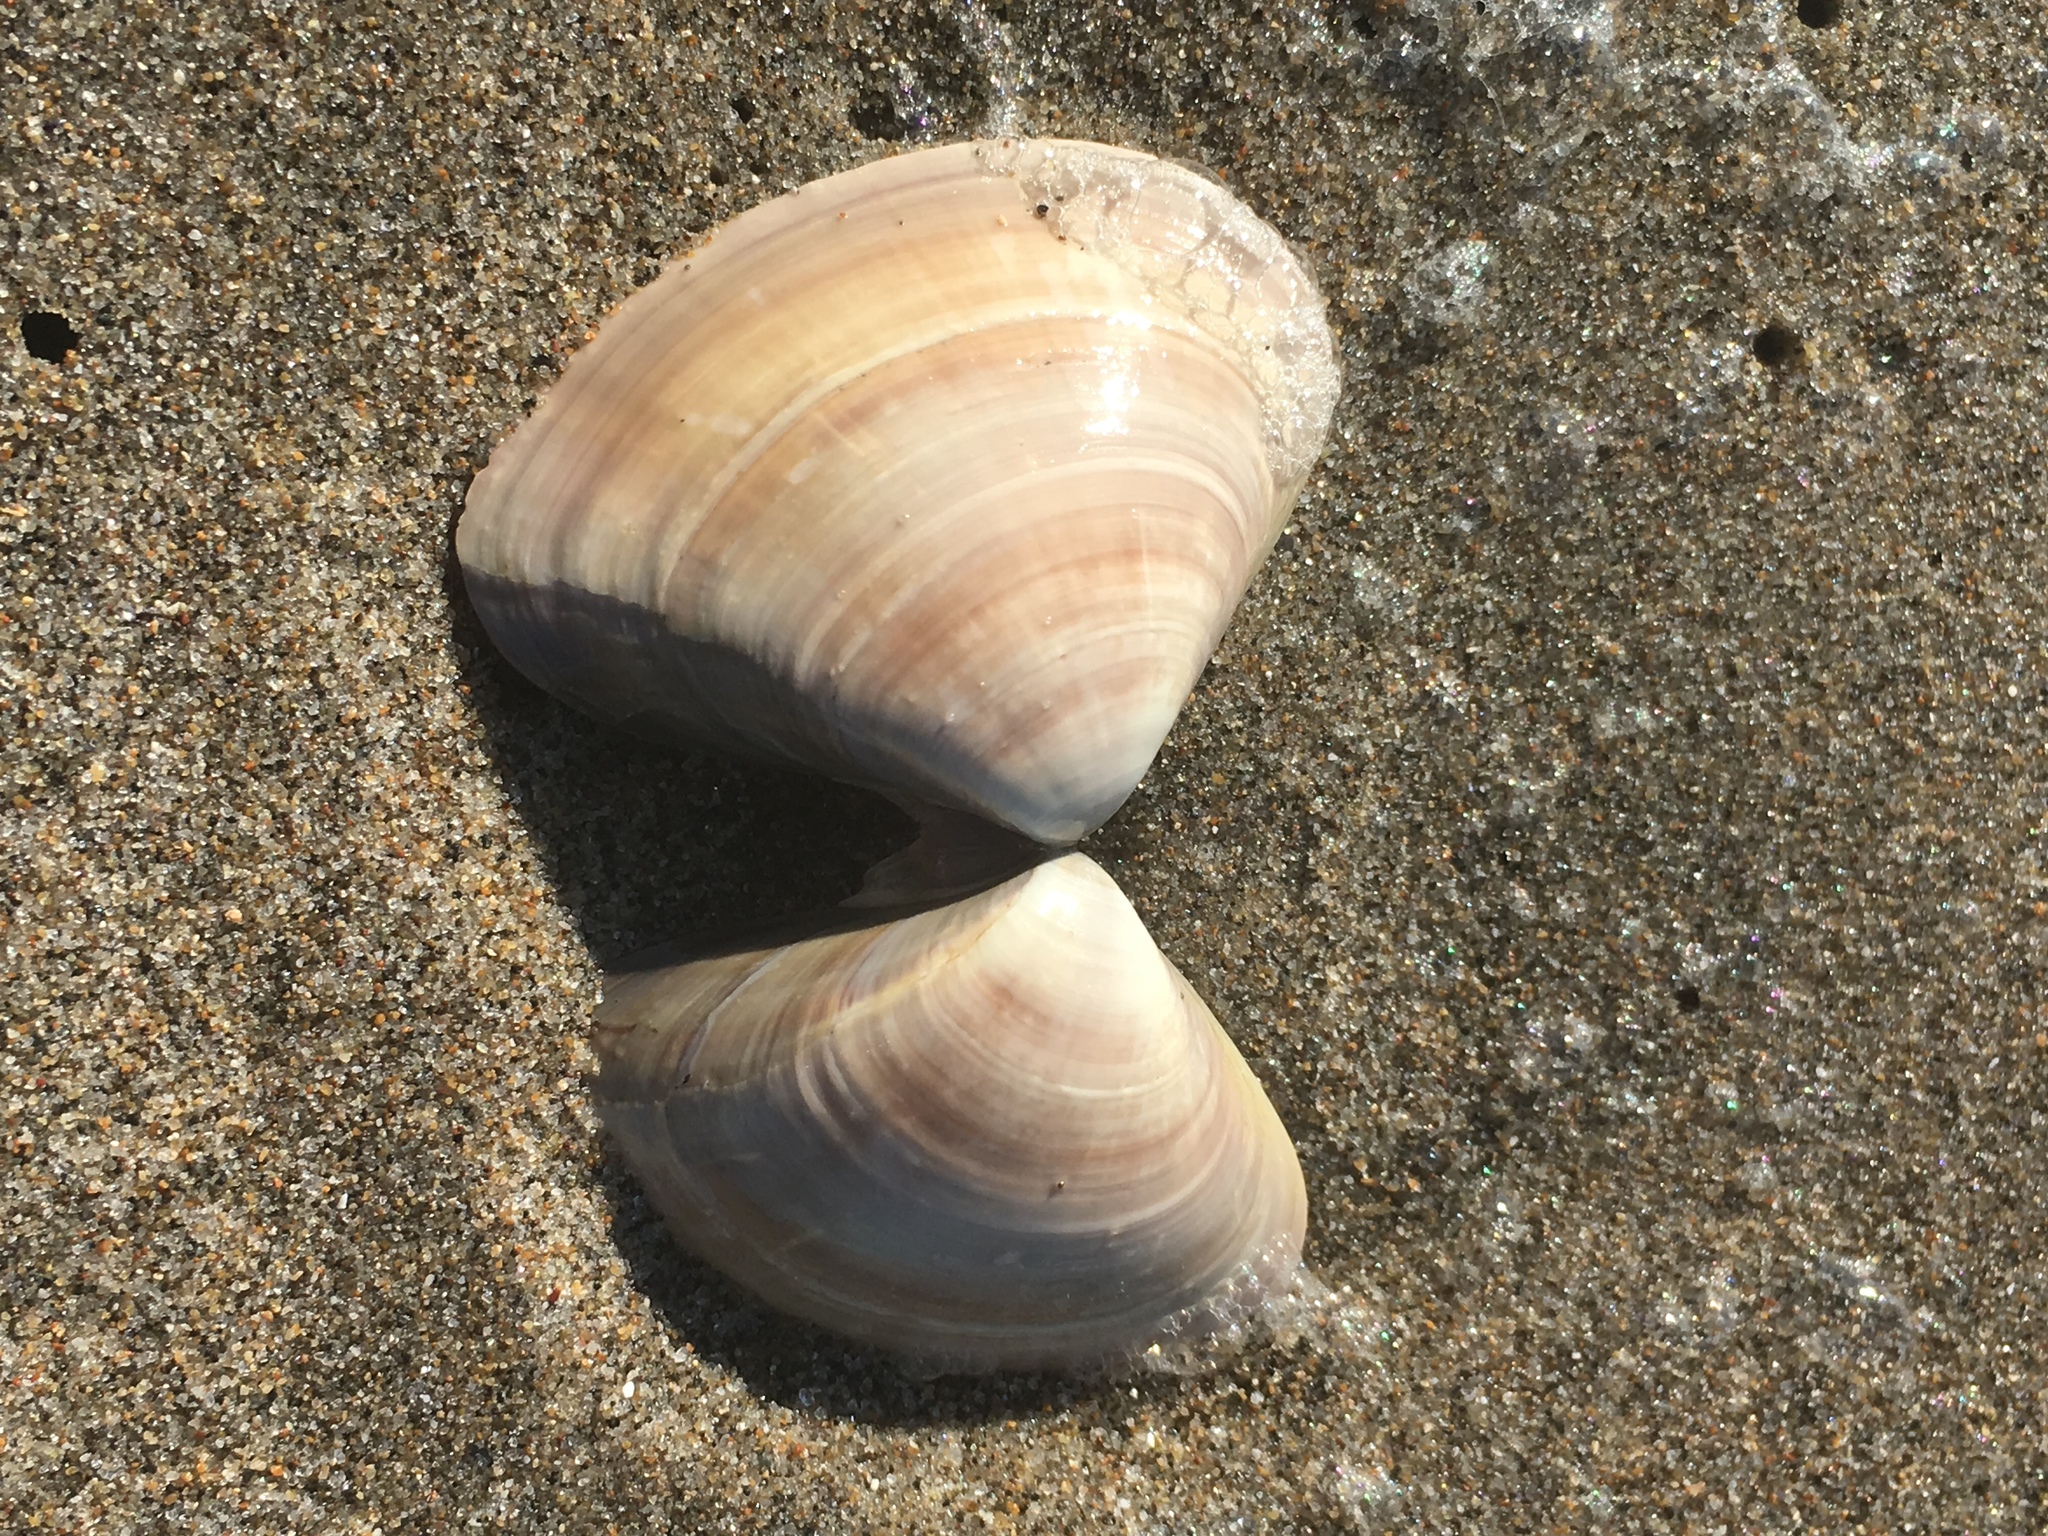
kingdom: Animalia
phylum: Mollusca
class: Bivalvia
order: Venerida
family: Veneridae
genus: Tivela
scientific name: Tivela stultorum
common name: Pismo clam
